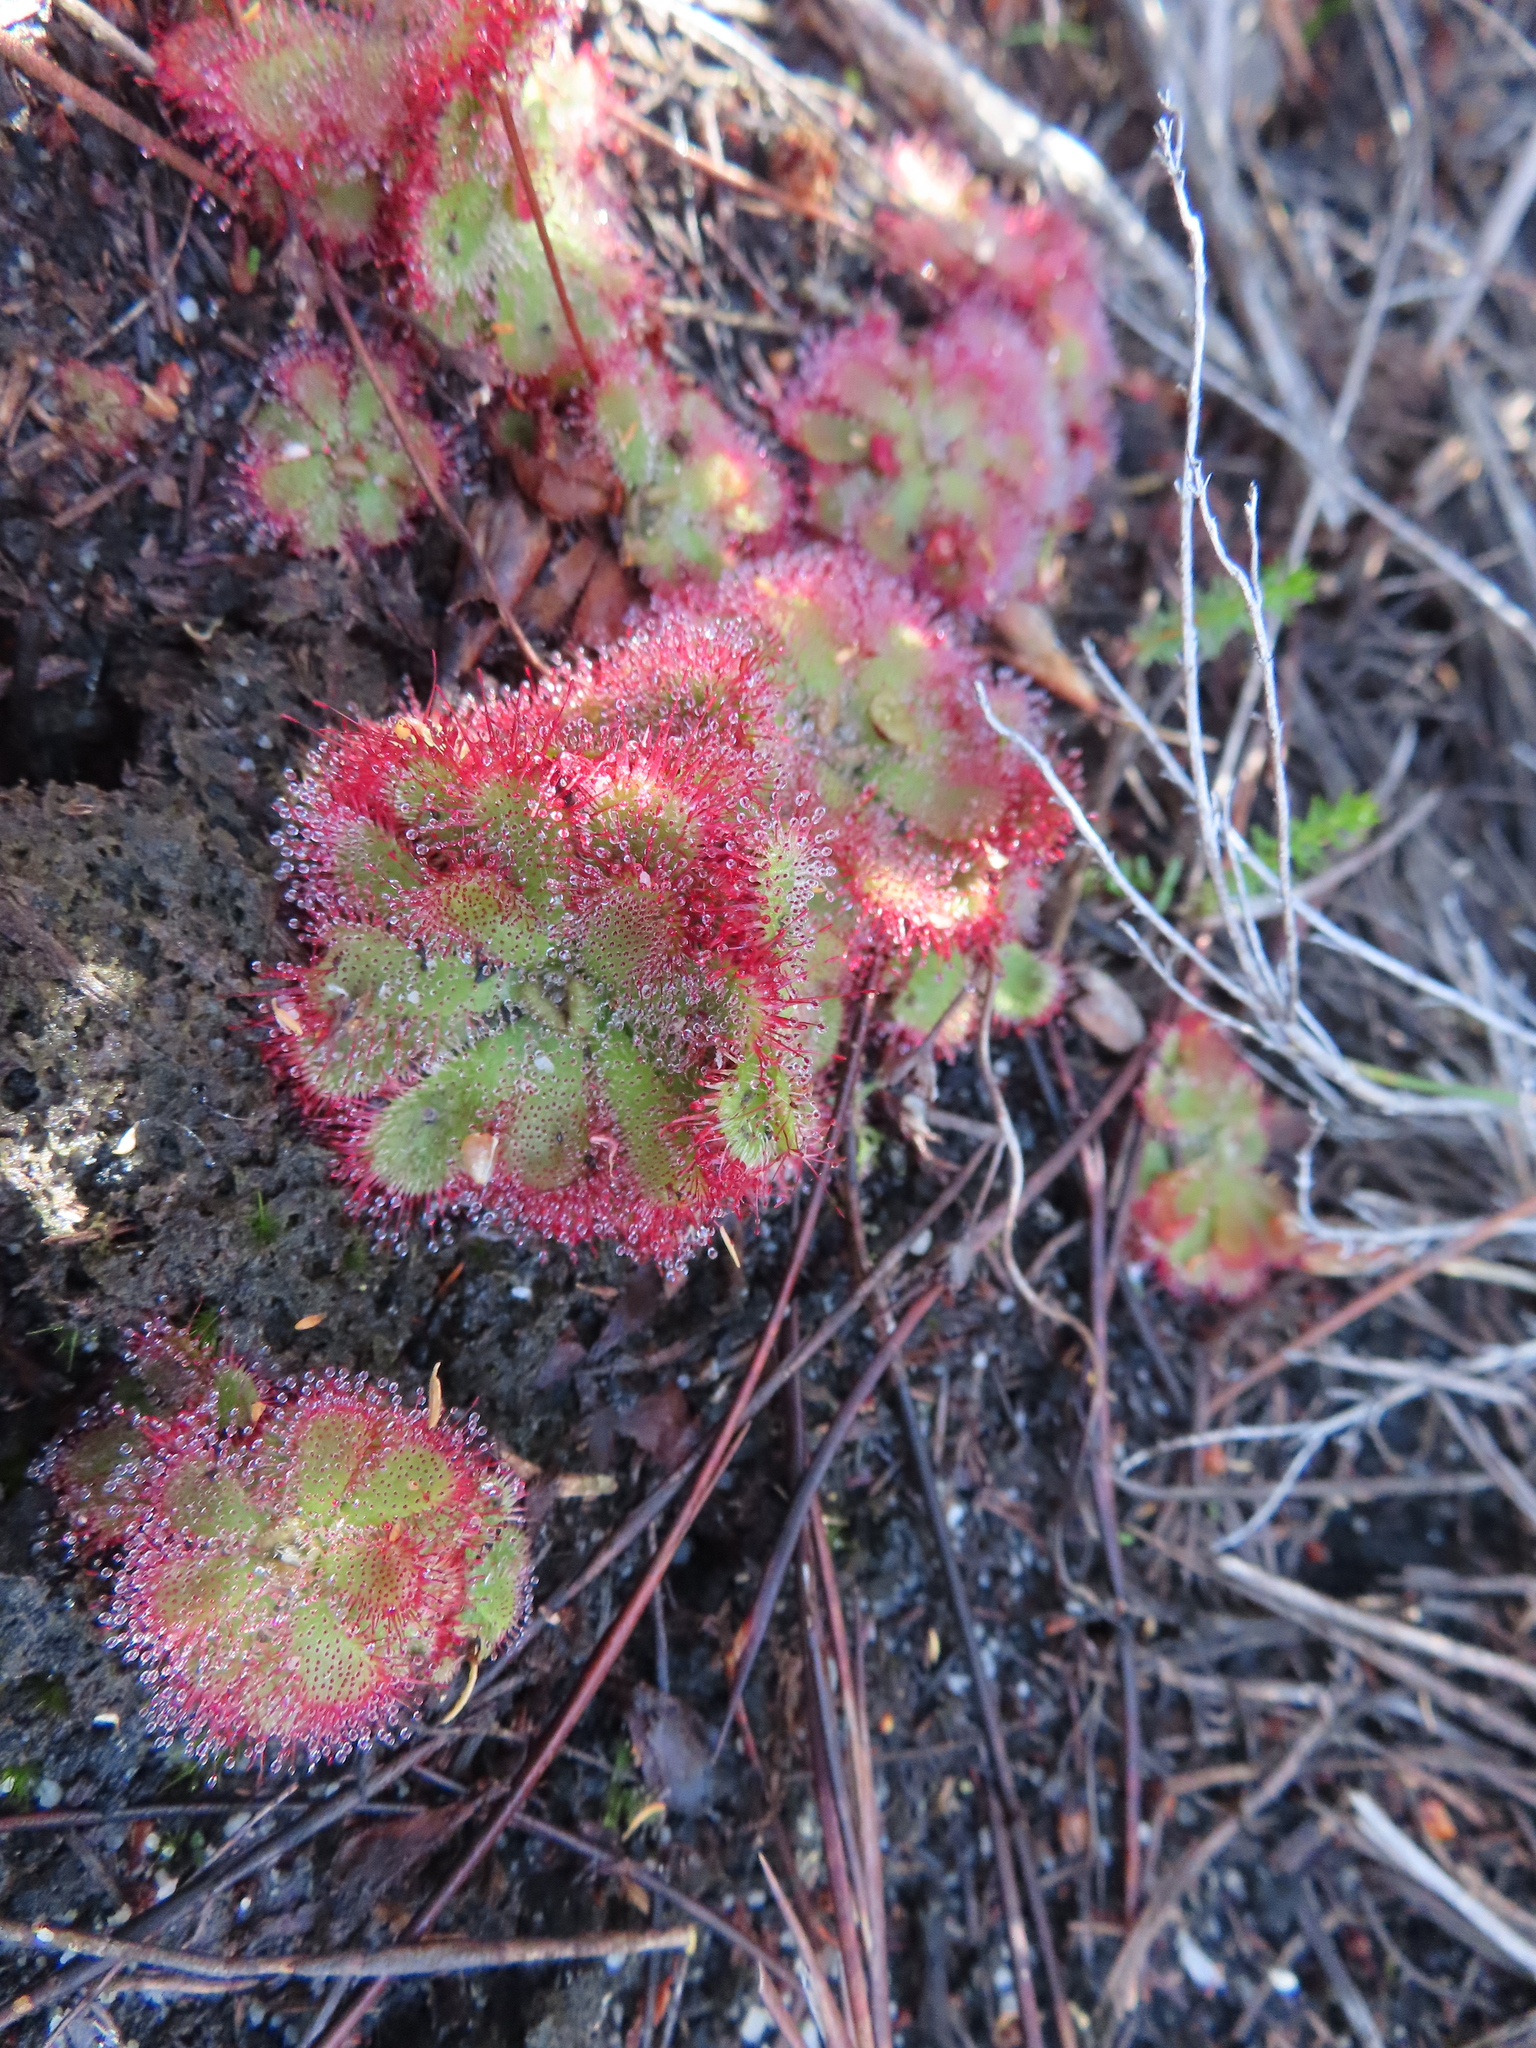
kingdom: Plantae
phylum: Tracheophyta
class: Magnoliopsida
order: Caryophyllales
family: Droseraceae
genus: Drosera
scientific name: Drosera aliciae
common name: Alice sundew
